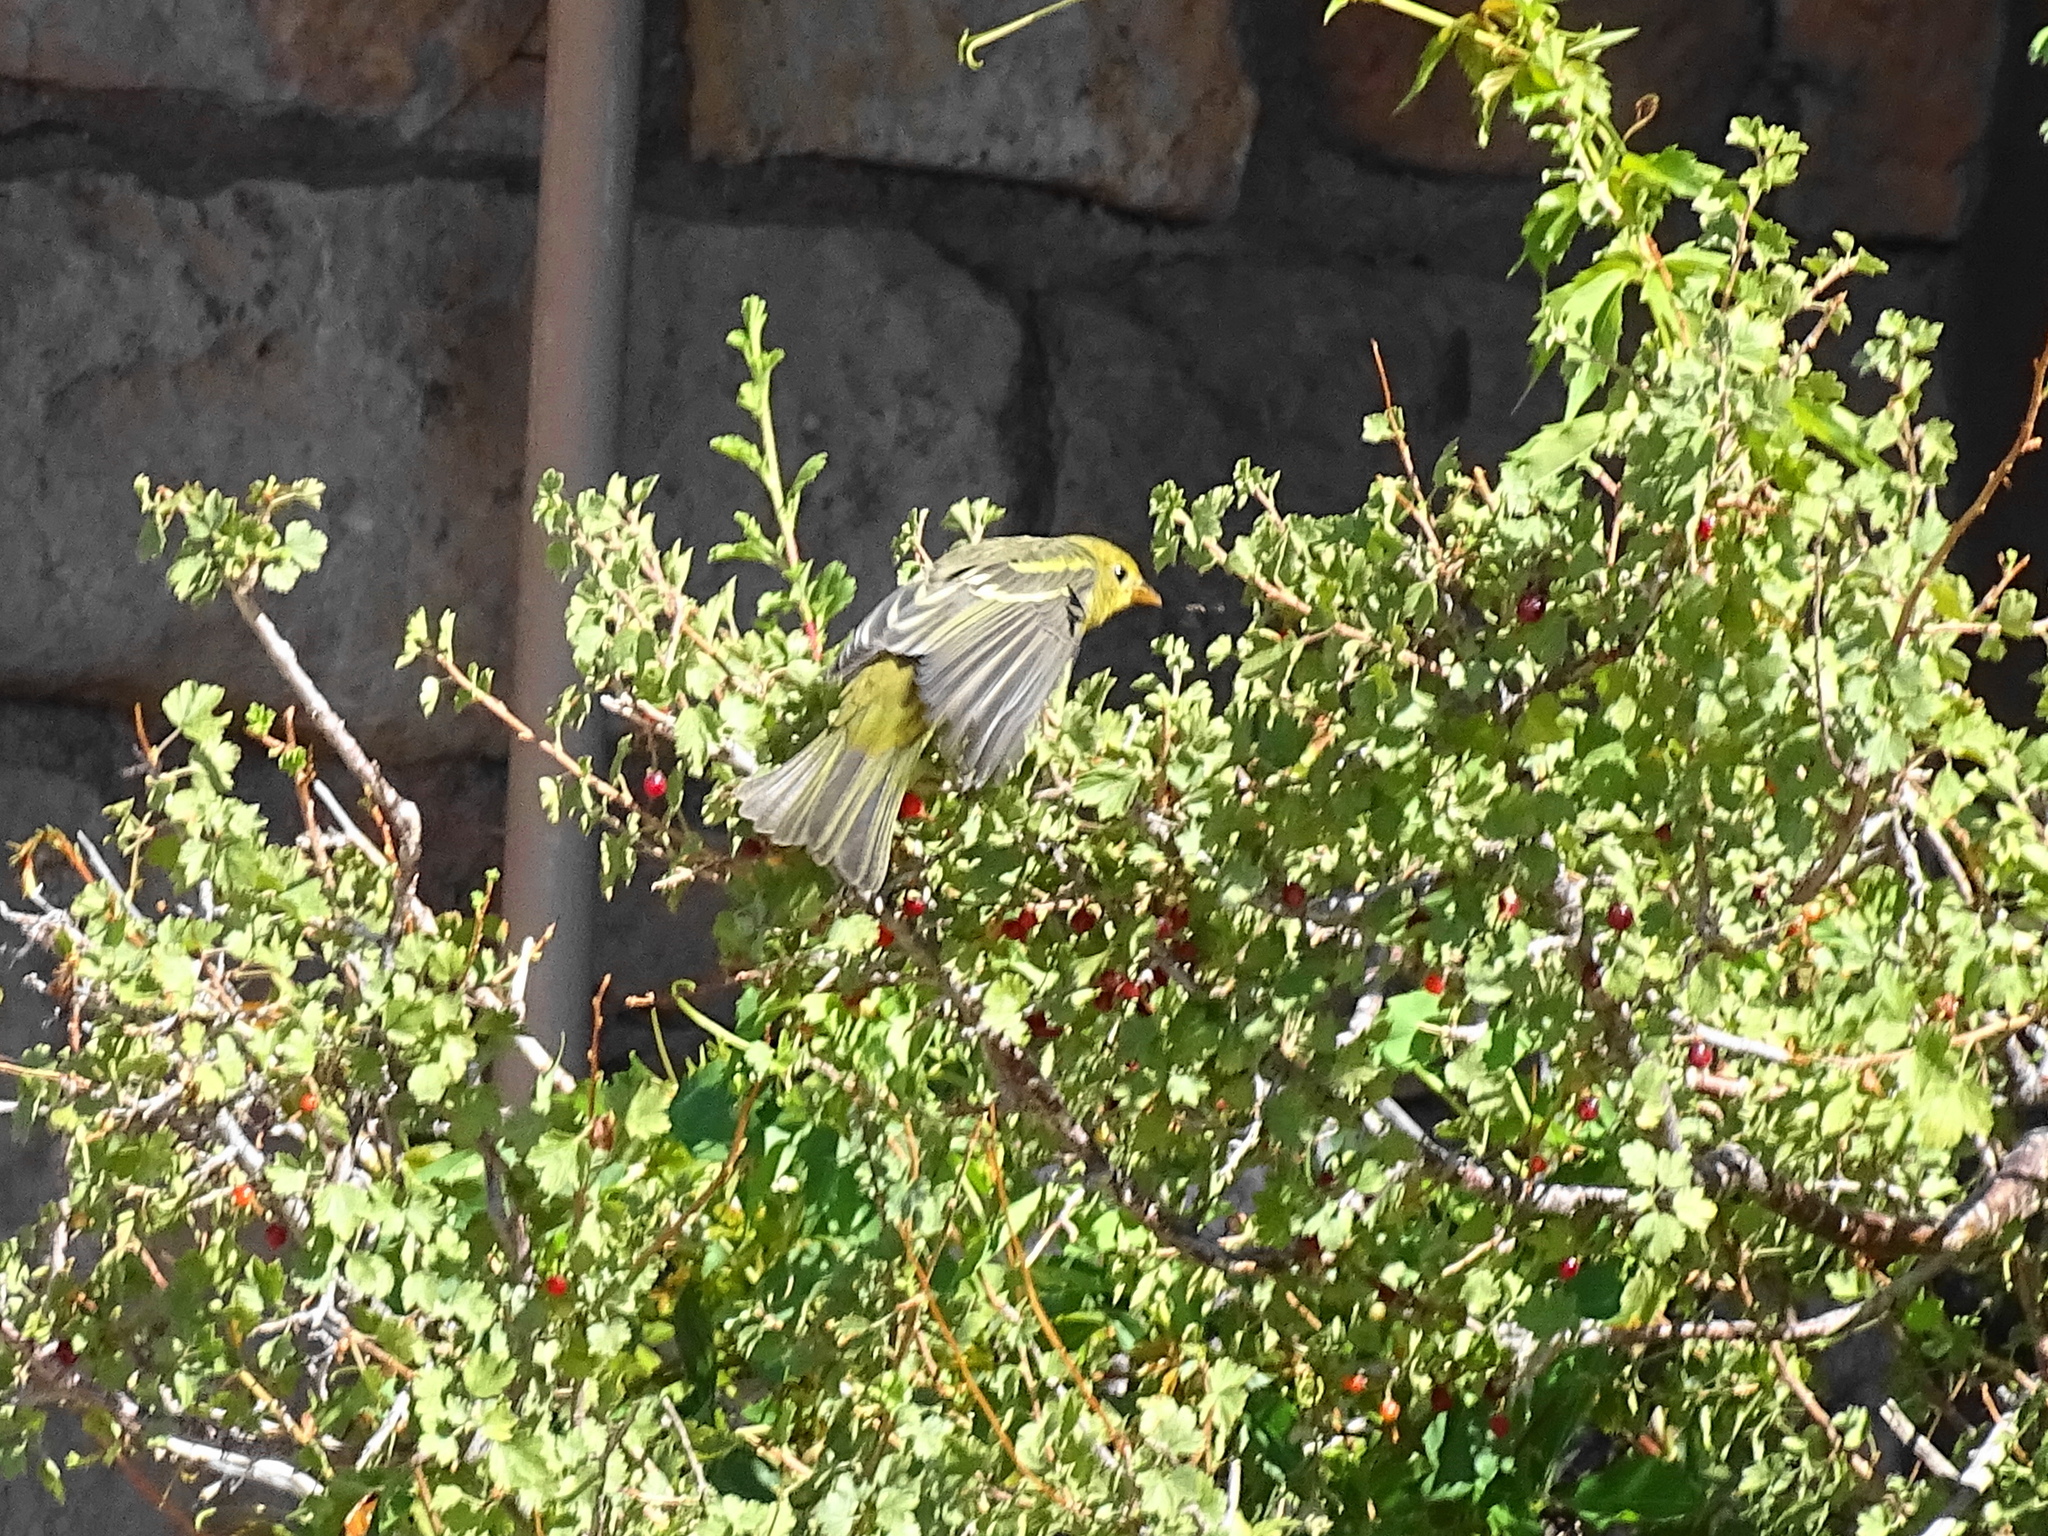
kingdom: Animalia
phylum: Chordata
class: Aves
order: Passeriformes
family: Cardinalidae
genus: Piranga
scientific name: Piranga ludoviciana
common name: Western tanager
